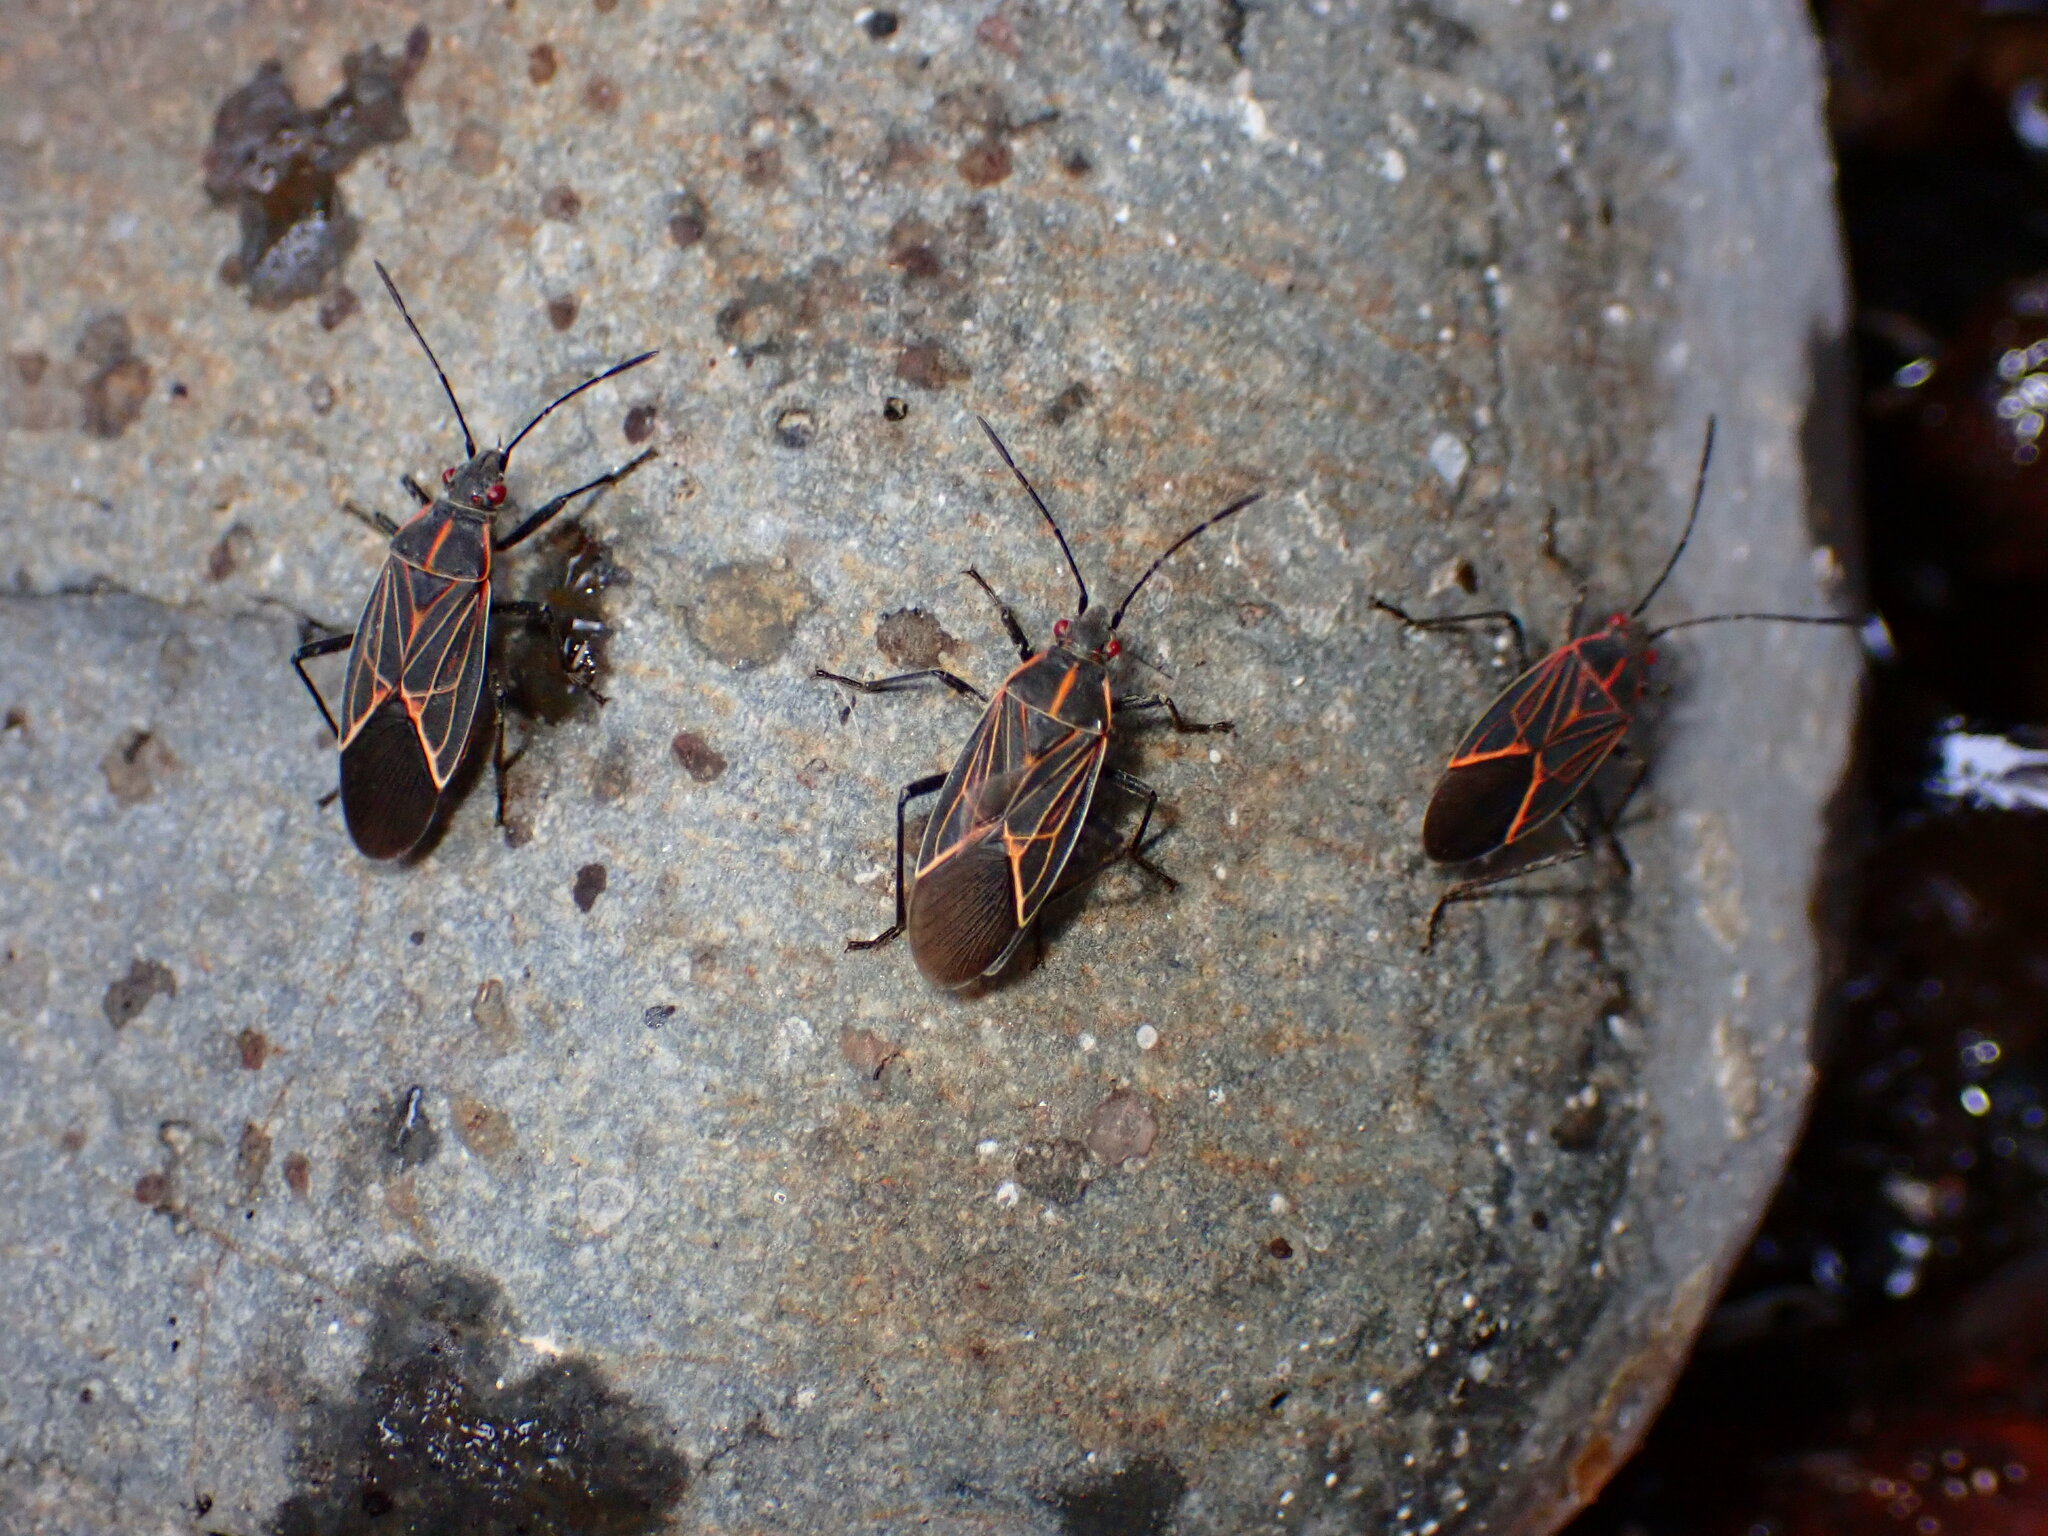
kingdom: Animalia
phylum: Arthropoda
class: Insecta
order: Hemiptera
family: Rhopalidae
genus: Boisea
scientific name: Boisea rubrolineata
